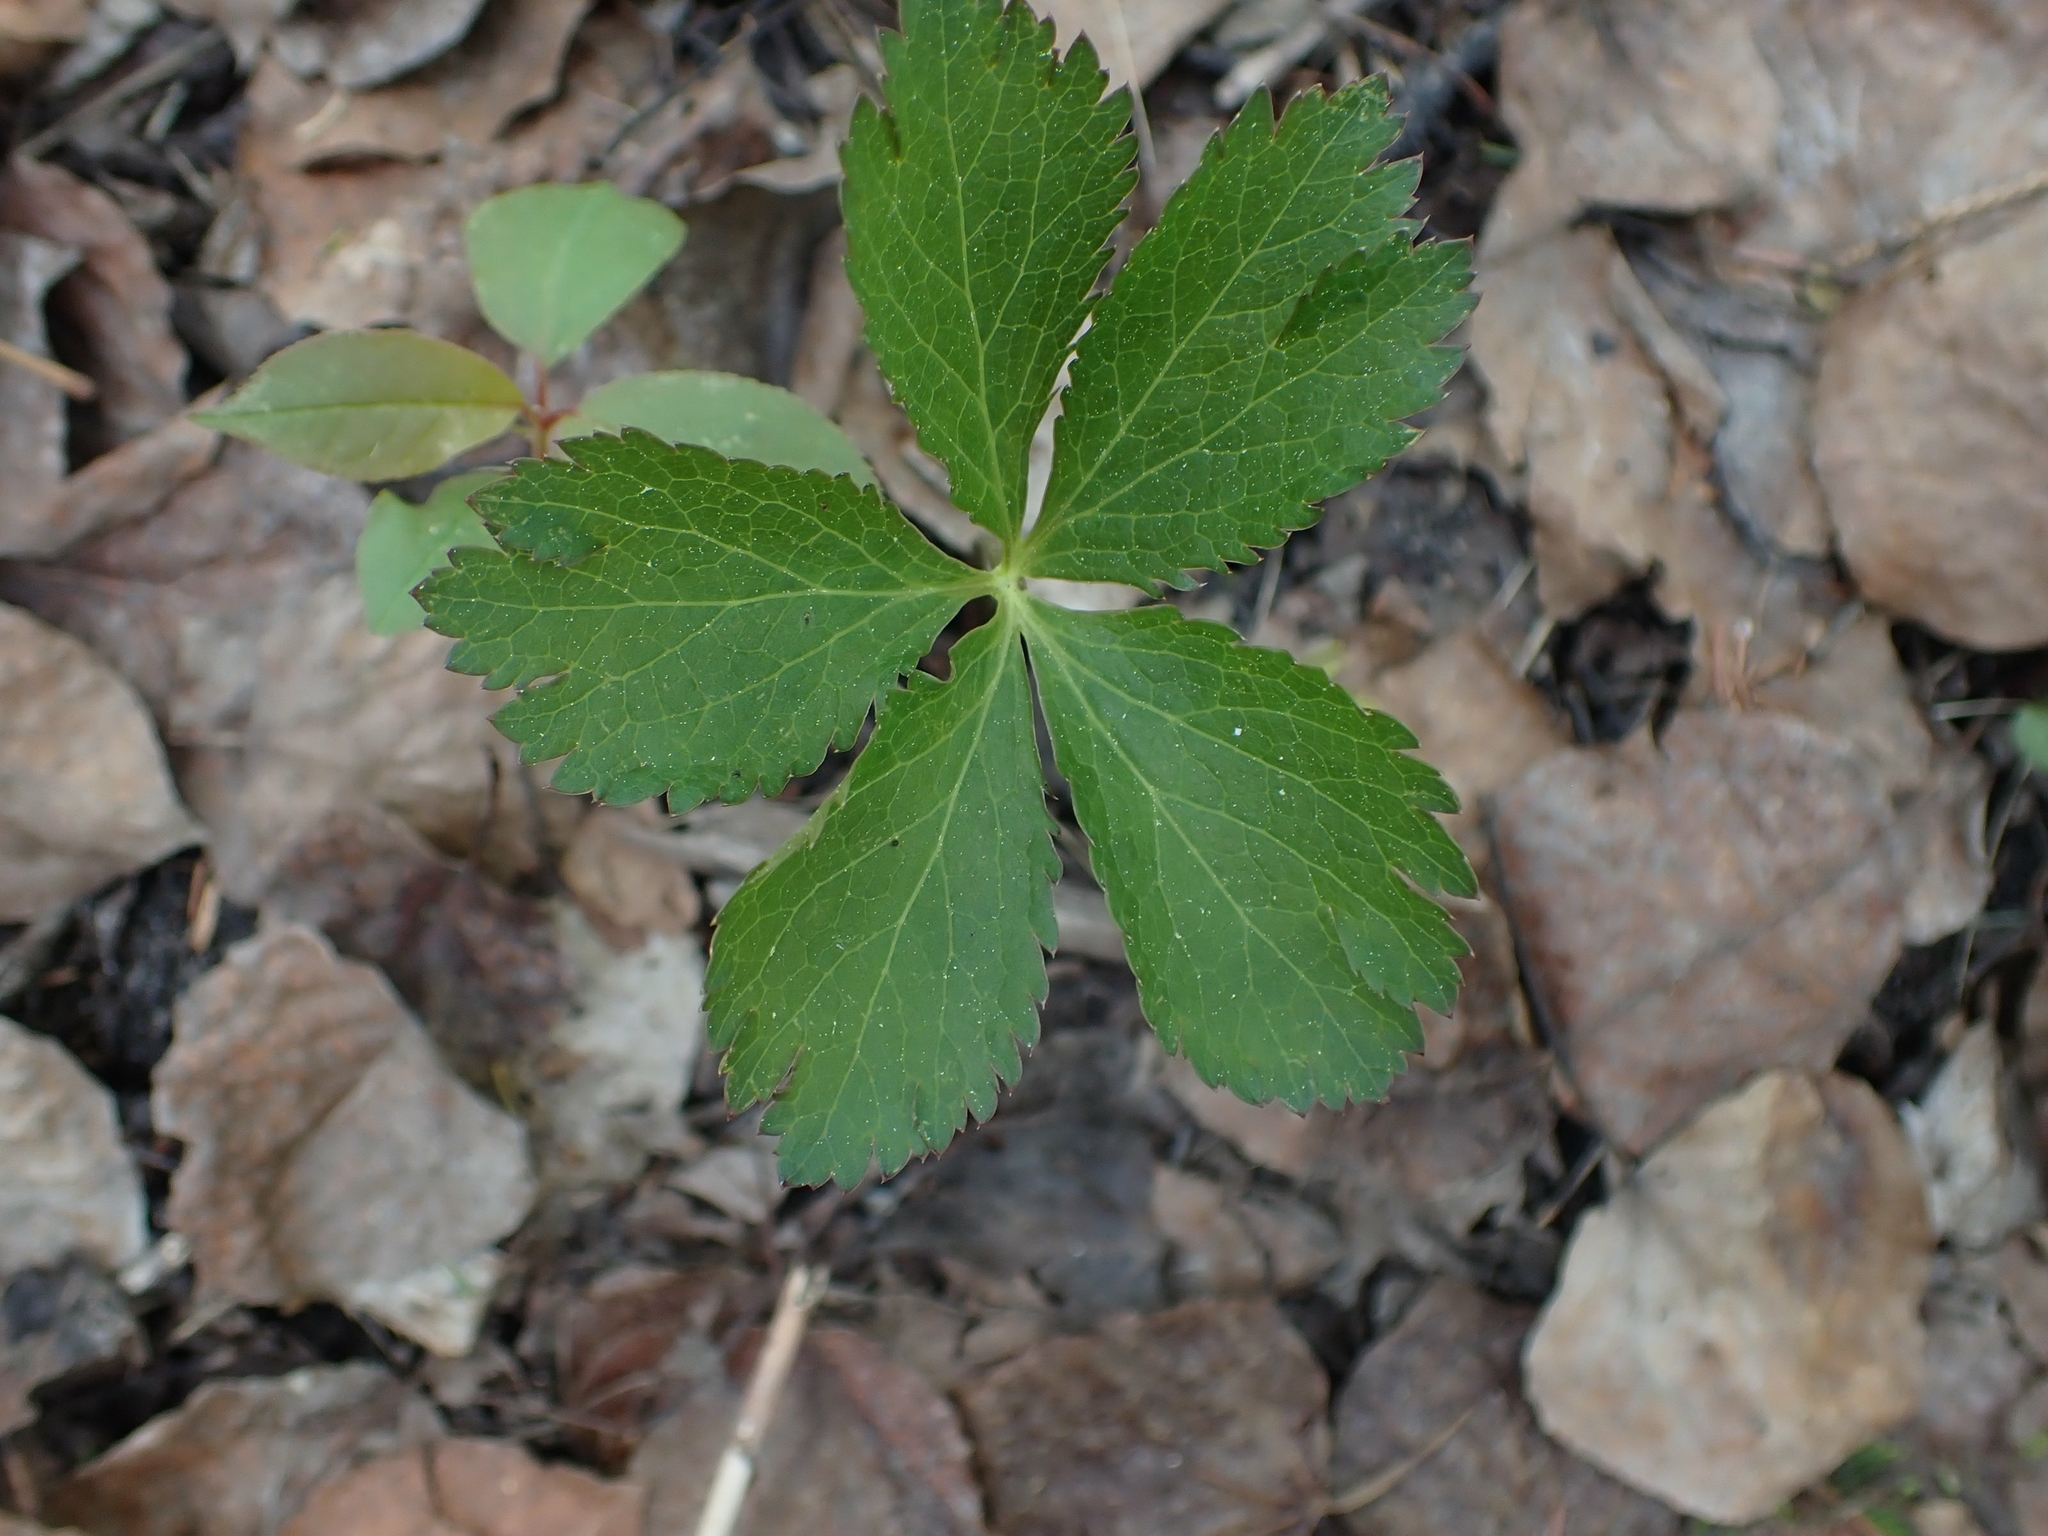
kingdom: Plantae
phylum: Tracheophyta
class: Magnoliopsida
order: Apiales
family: Apiaceae
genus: Sanicula
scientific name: Sanicula marilandica
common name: Black snakeroot
